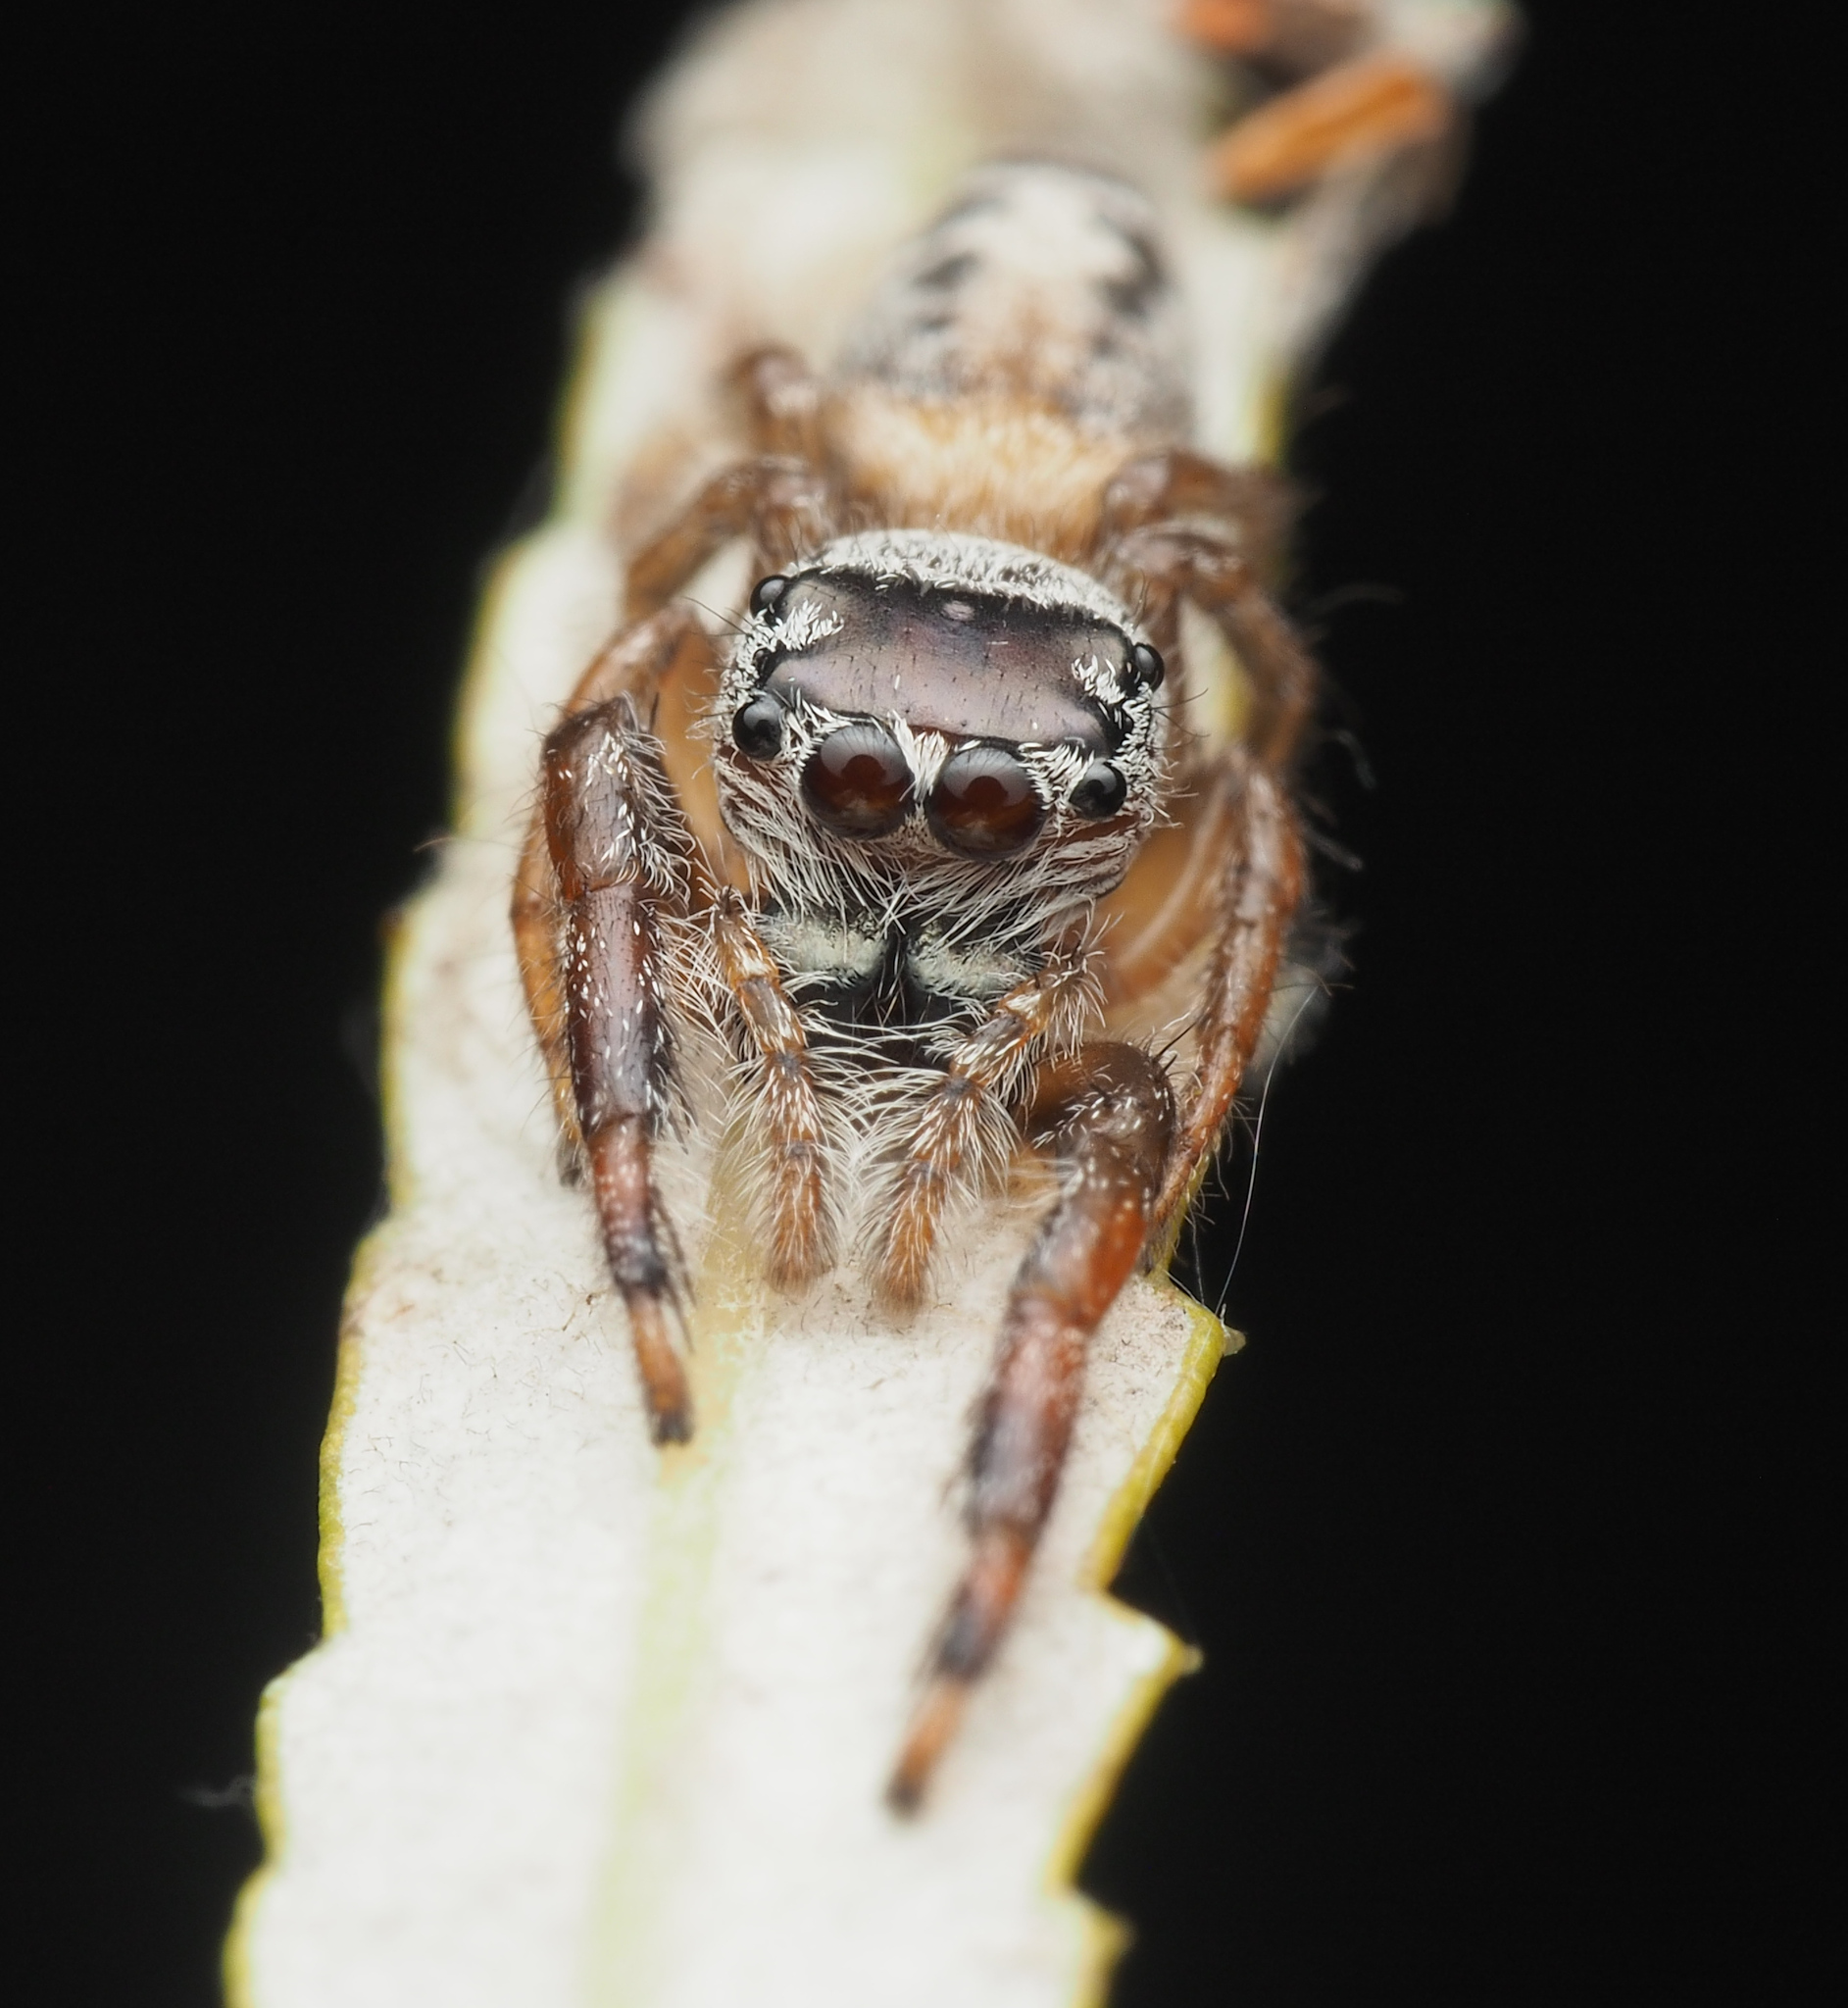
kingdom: Animalia
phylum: Arthropoda
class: Arachnida
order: Araneae
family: Salticidae
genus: Opisthoncus
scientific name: Opisthoncus
